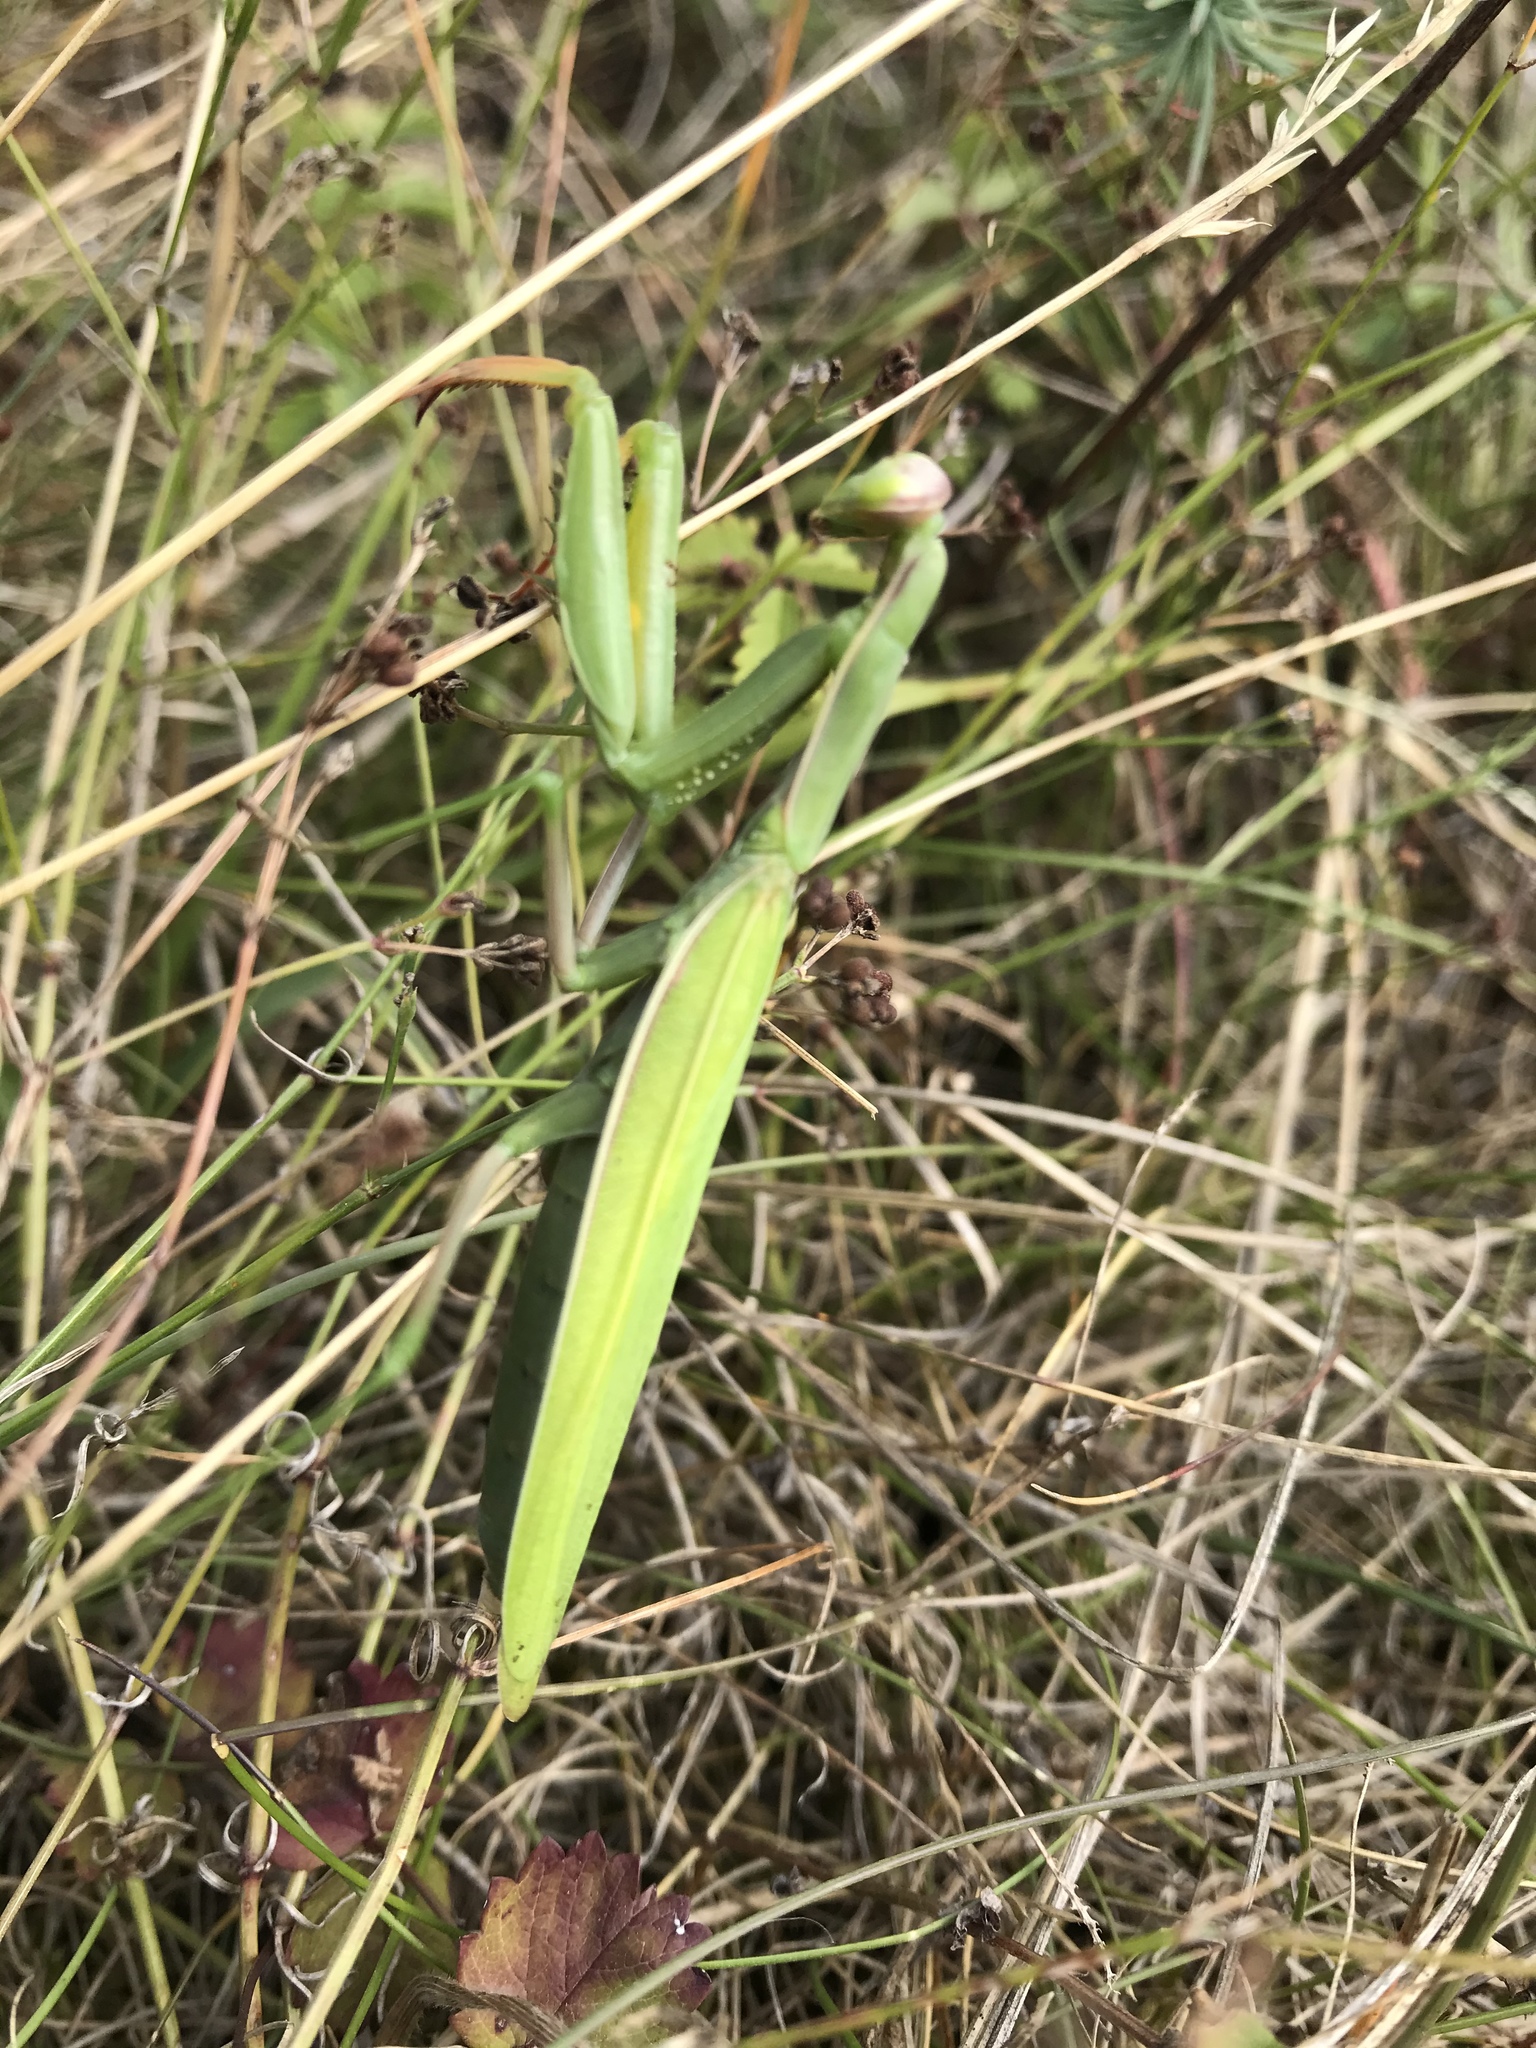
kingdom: Animalia
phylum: Arthropoda
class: Insecta
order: Mantodea
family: Mantidae
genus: Mantis
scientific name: Mantis religiosa
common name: Praying mantis
